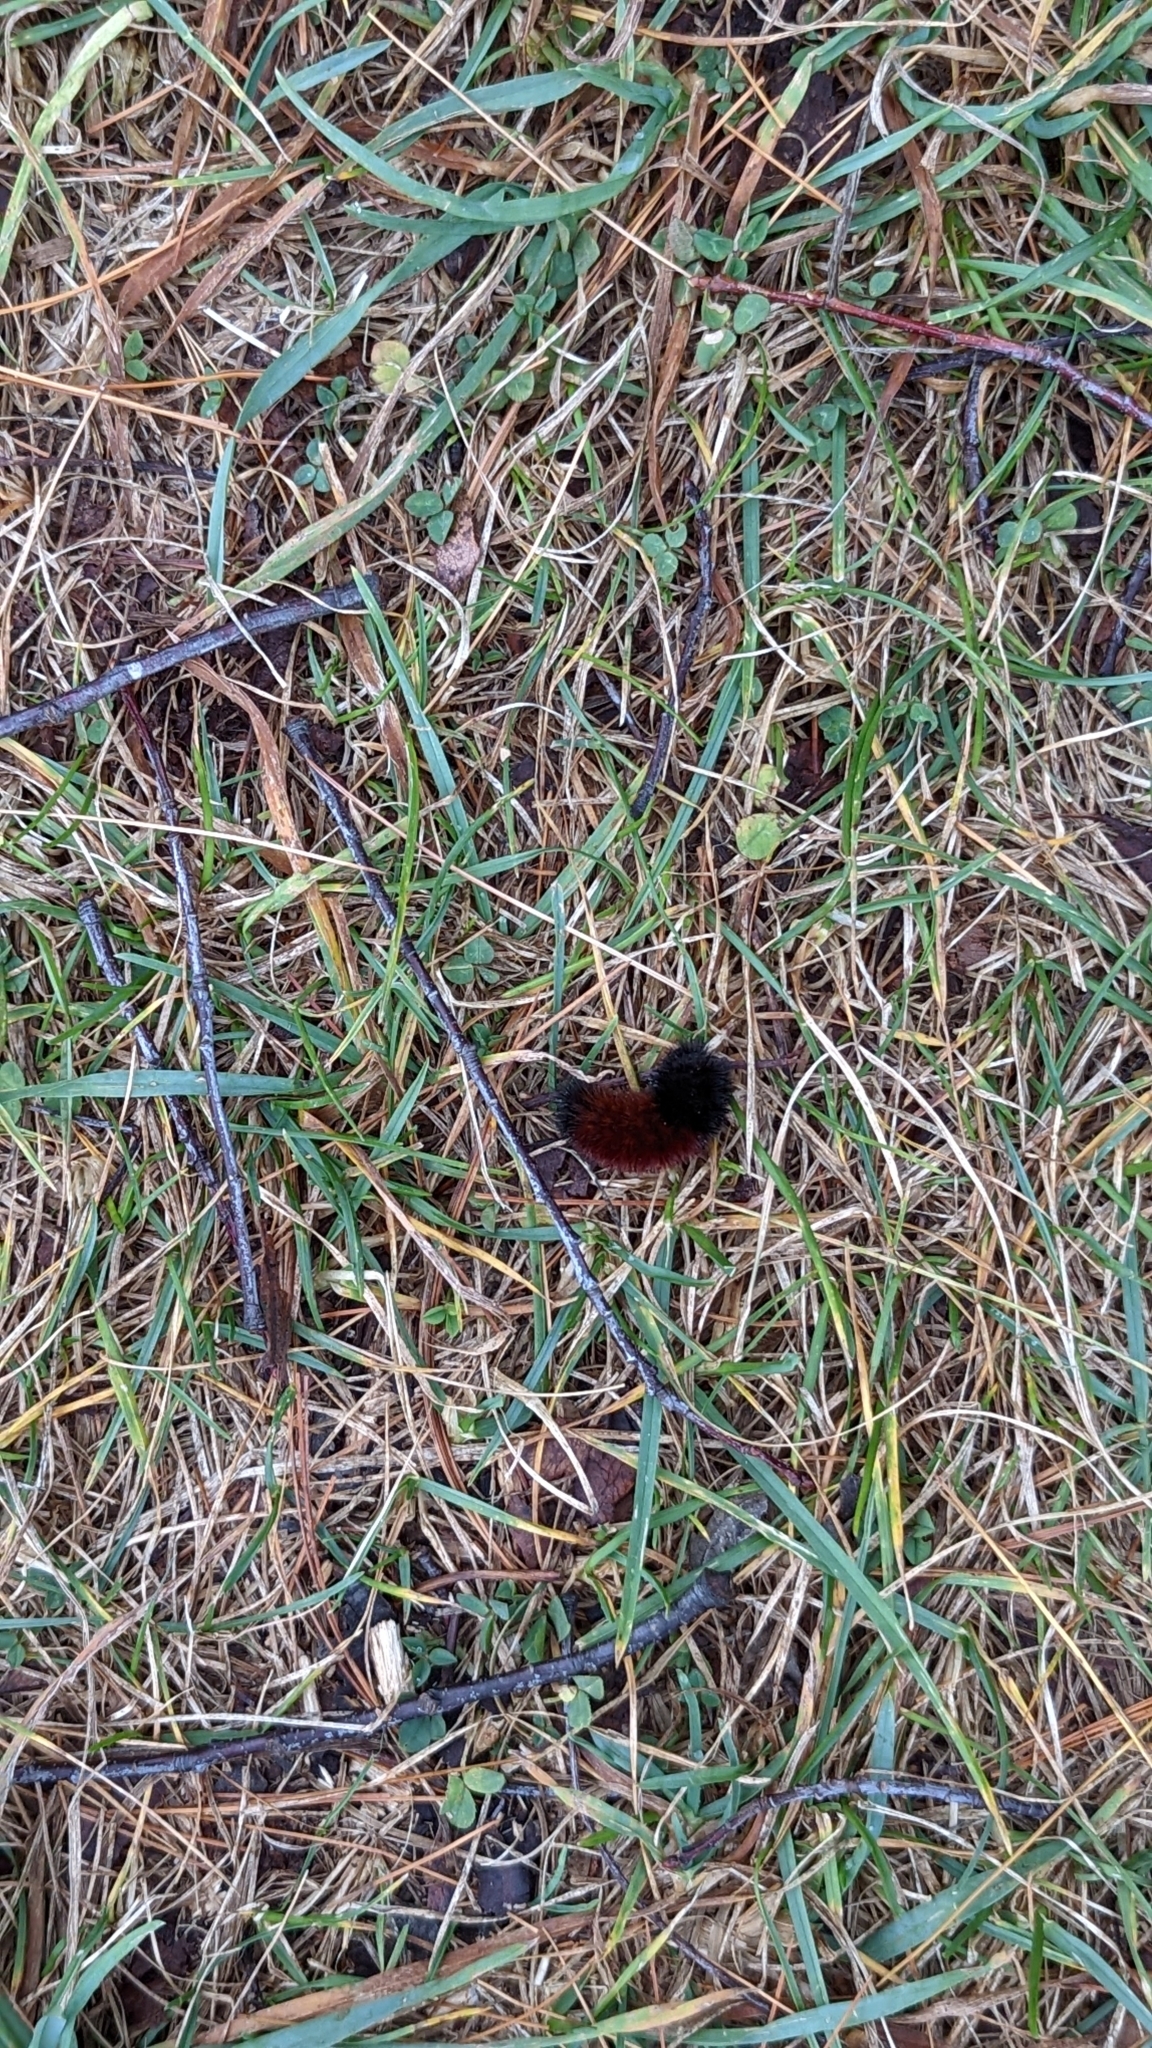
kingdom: Animalia
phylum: Arthropoda
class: Insecta
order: Lepidoptera
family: Erebidae
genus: Pyrrharctia
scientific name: Pyrrharctia isabella
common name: Isabella tiger moth
